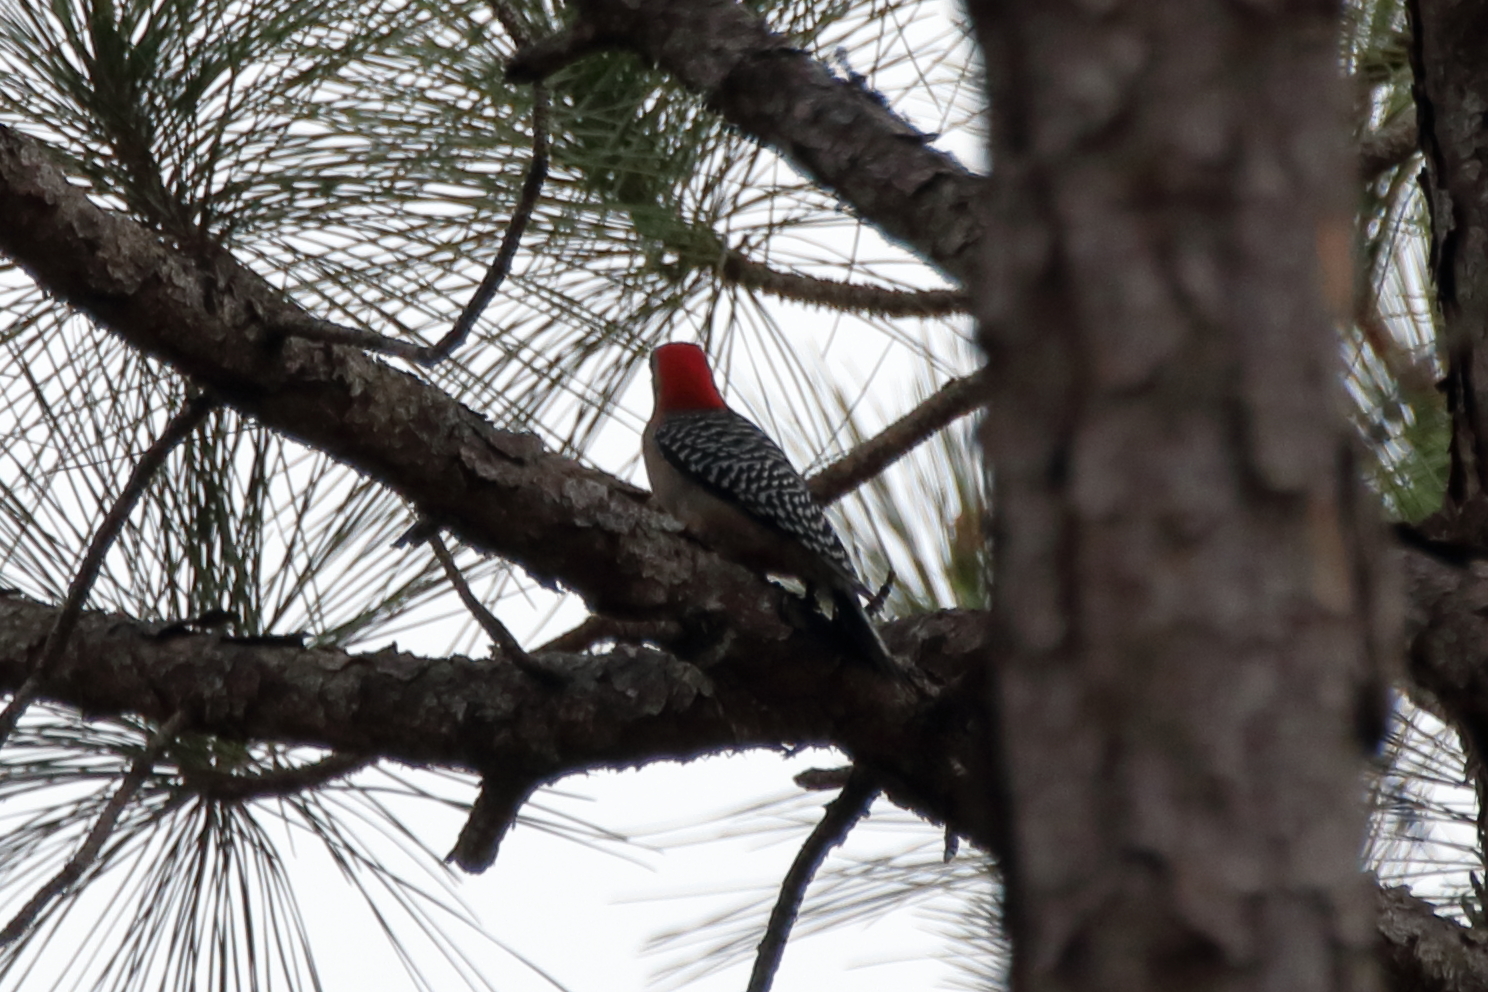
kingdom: Animalia
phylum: Chordata
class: Aves
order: Piciformes
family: Picidae
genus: Melanerpes
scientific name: Melanerpes carolinus
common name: Red-bellied woodpecker
